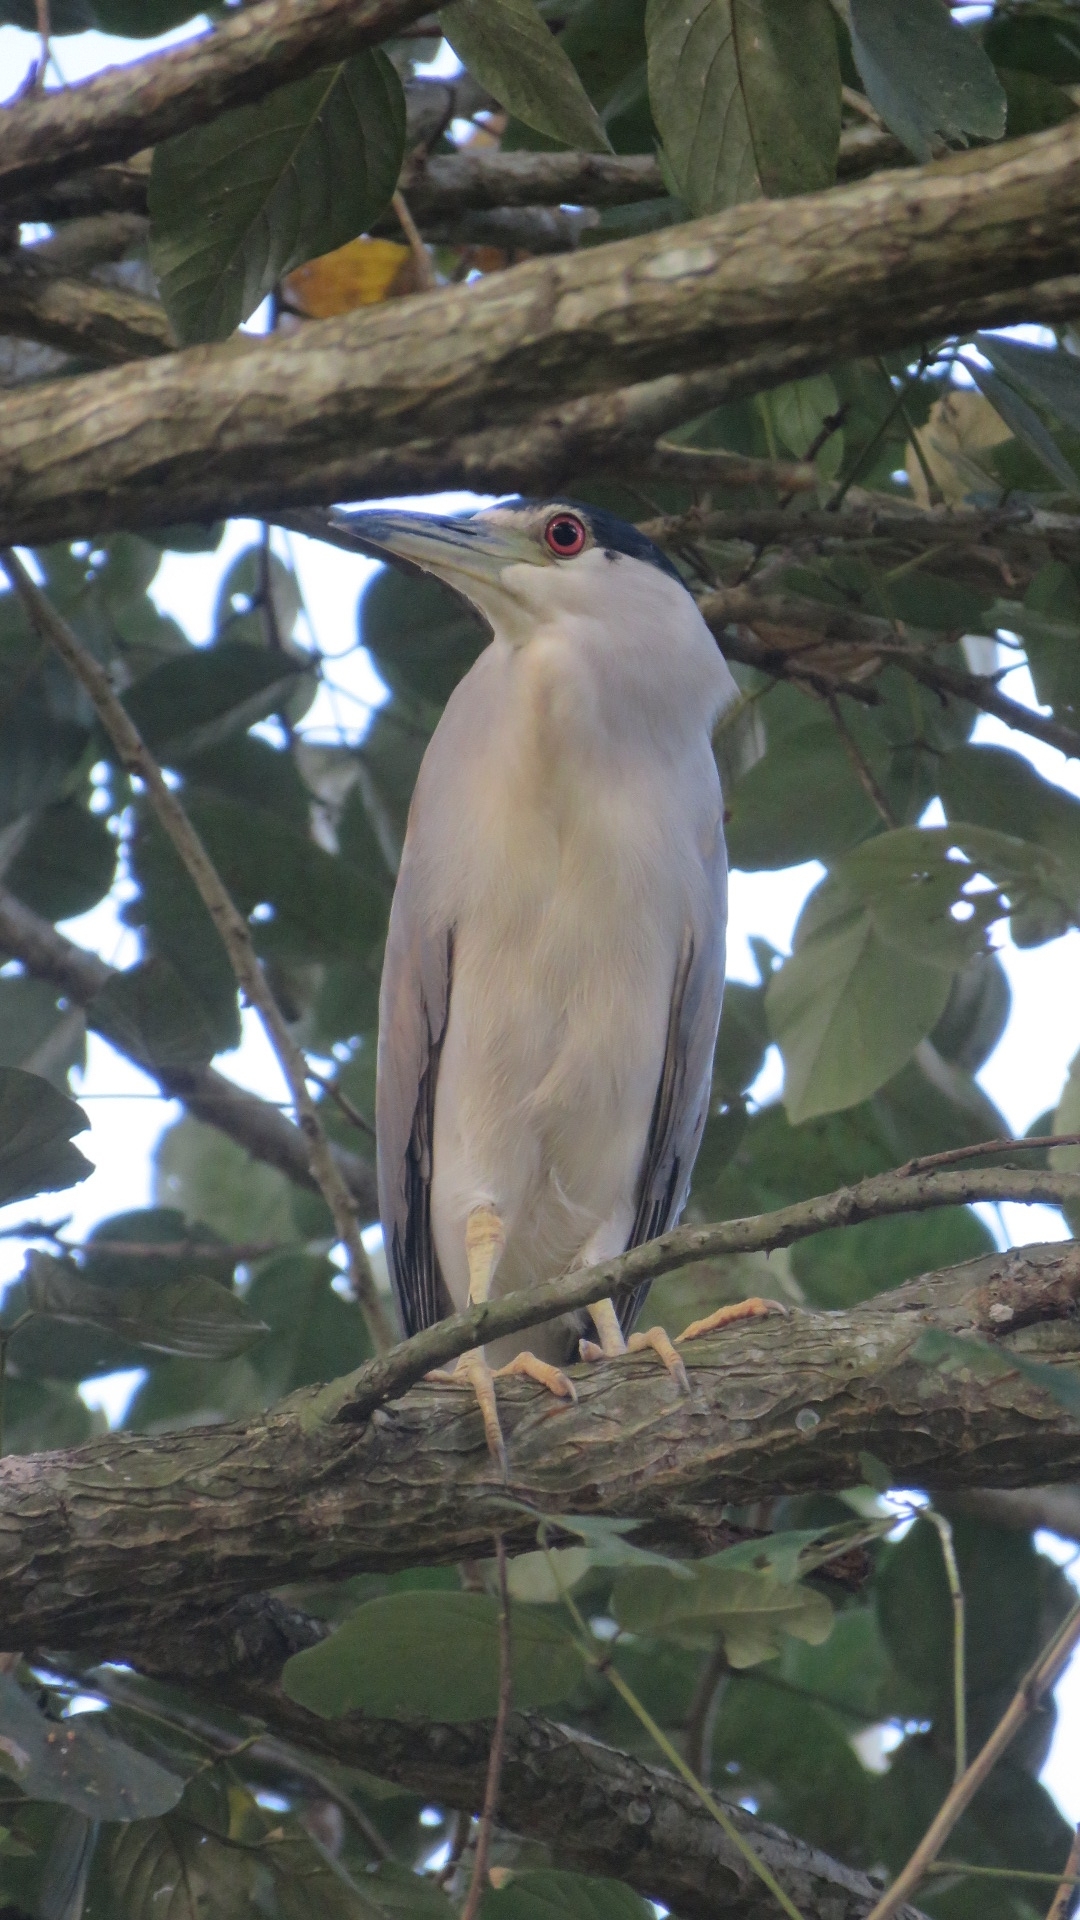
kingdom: Animalia
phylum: Chordata
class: Aves
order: Pelecaniformes
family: Ardeidae
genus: Nycticorax
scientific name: Nycticorax nycticorax
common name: Black-crowned night heron
